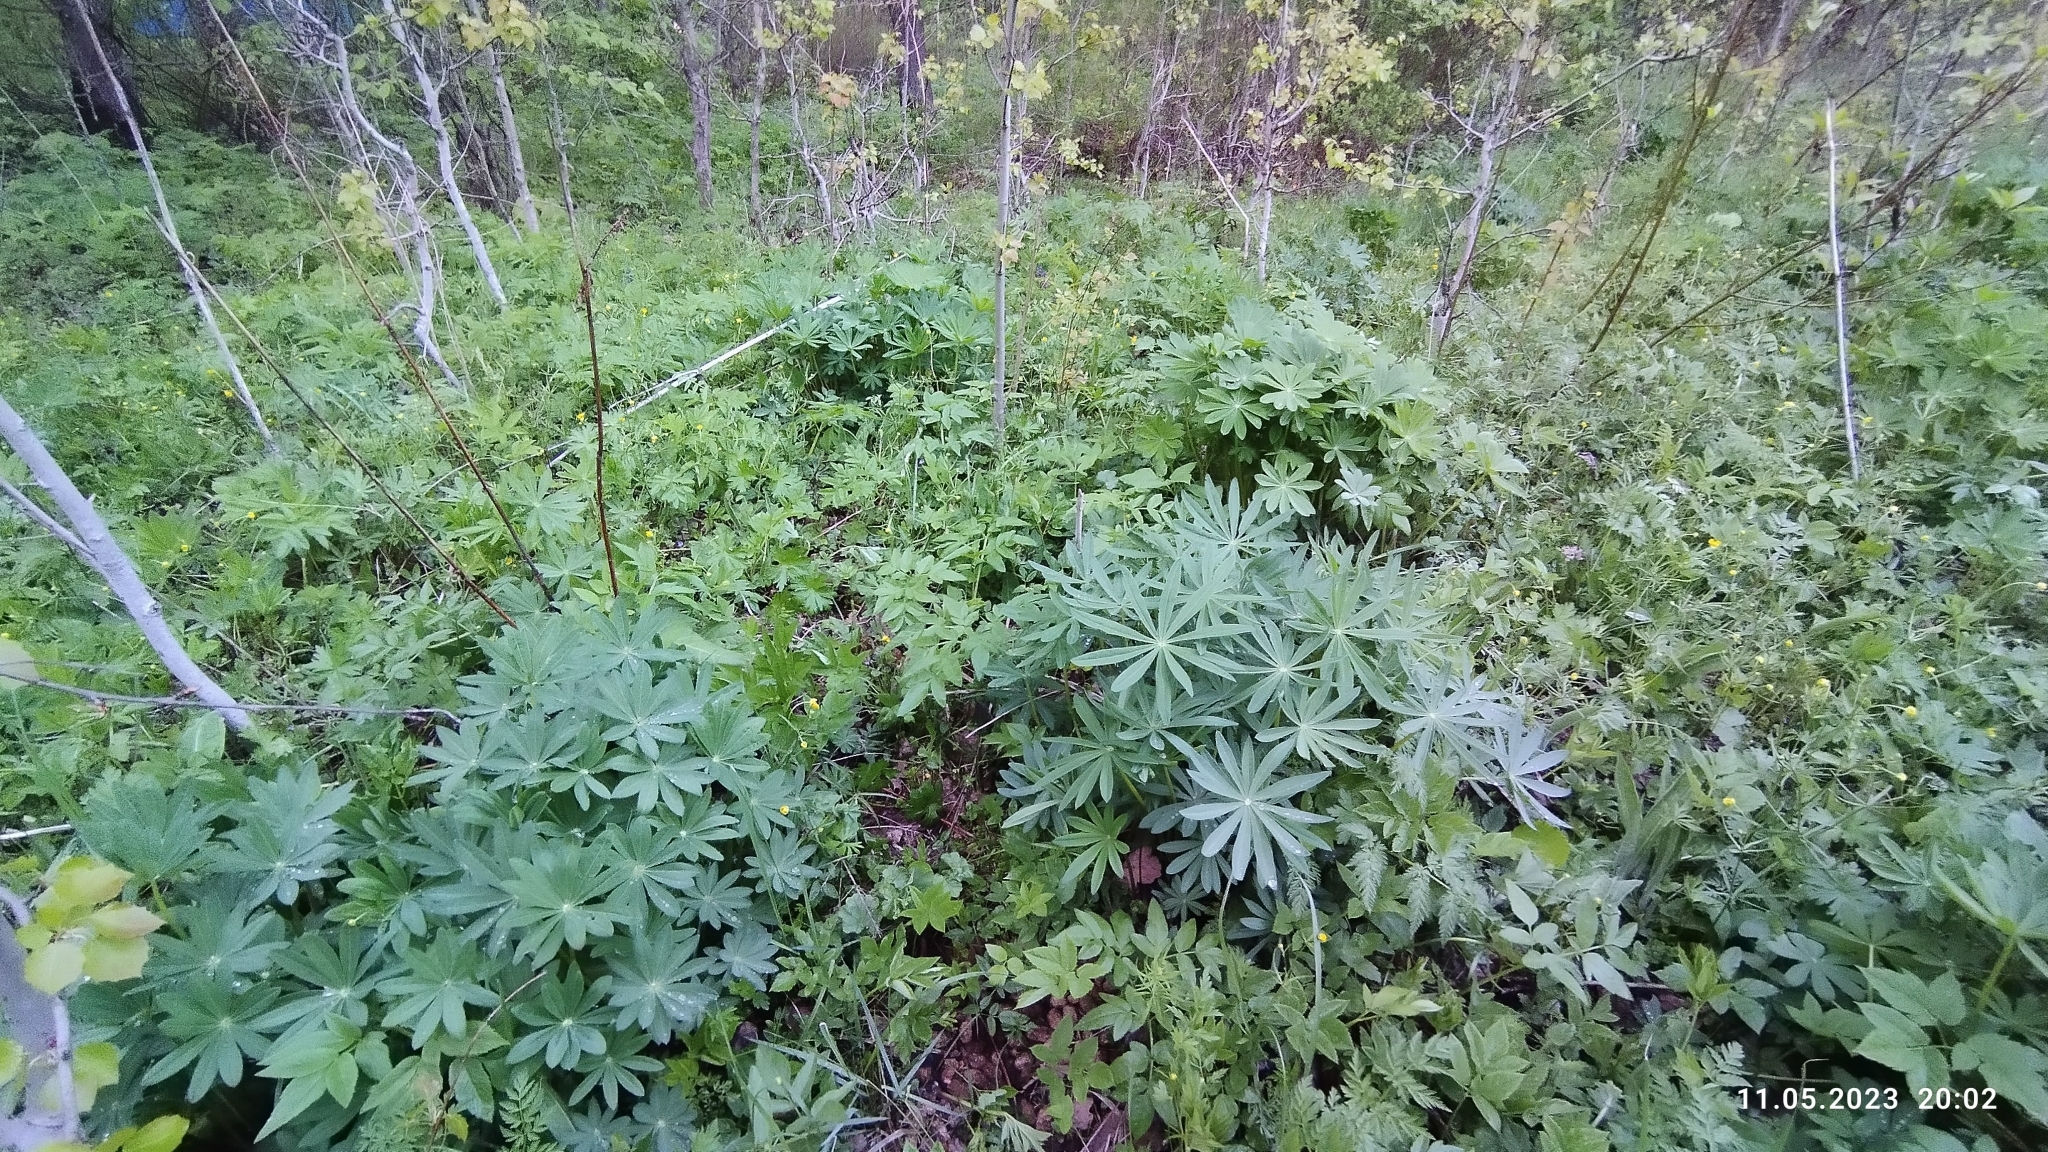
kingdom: Plantae
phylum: Tracheophyta
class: Magnoliopsida
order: Fabales
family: Fabaceae
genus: Lupinus
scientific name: Lupinus polyphyllus
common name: Garden lupin
